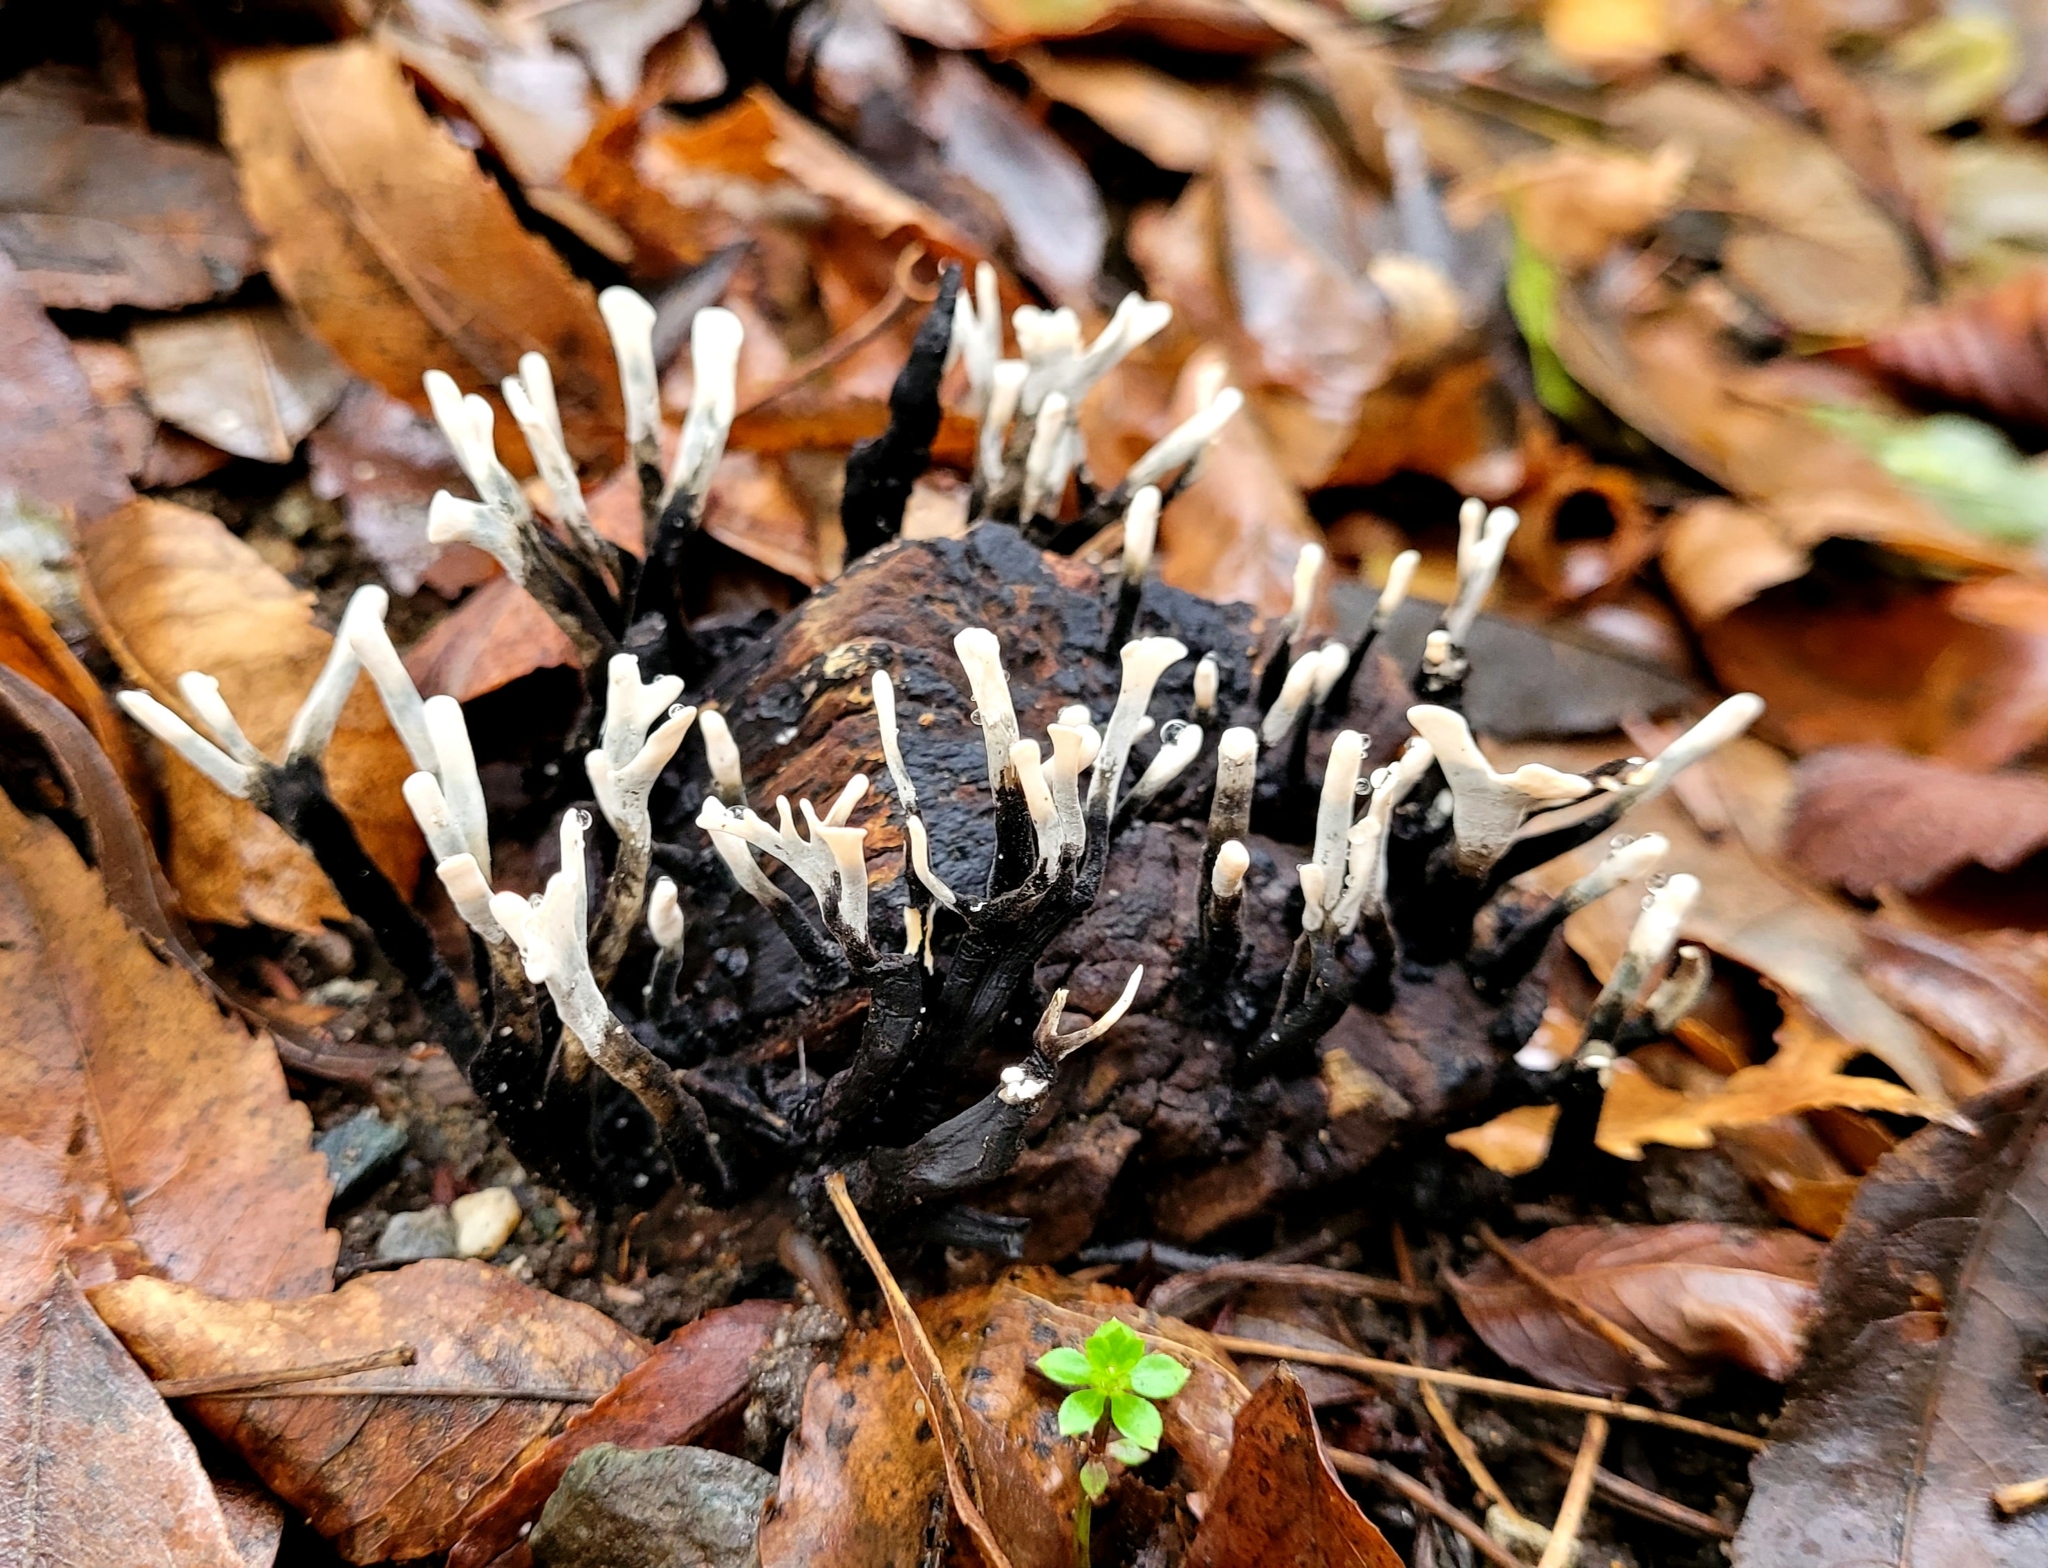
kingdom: Fungi
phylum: Ascomycota
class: Sordariomycetes
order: Xylariales
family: Xylariaceae
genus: Xylaria
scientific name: Xylaria hypoxylon
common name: Candle-snuff fungus
